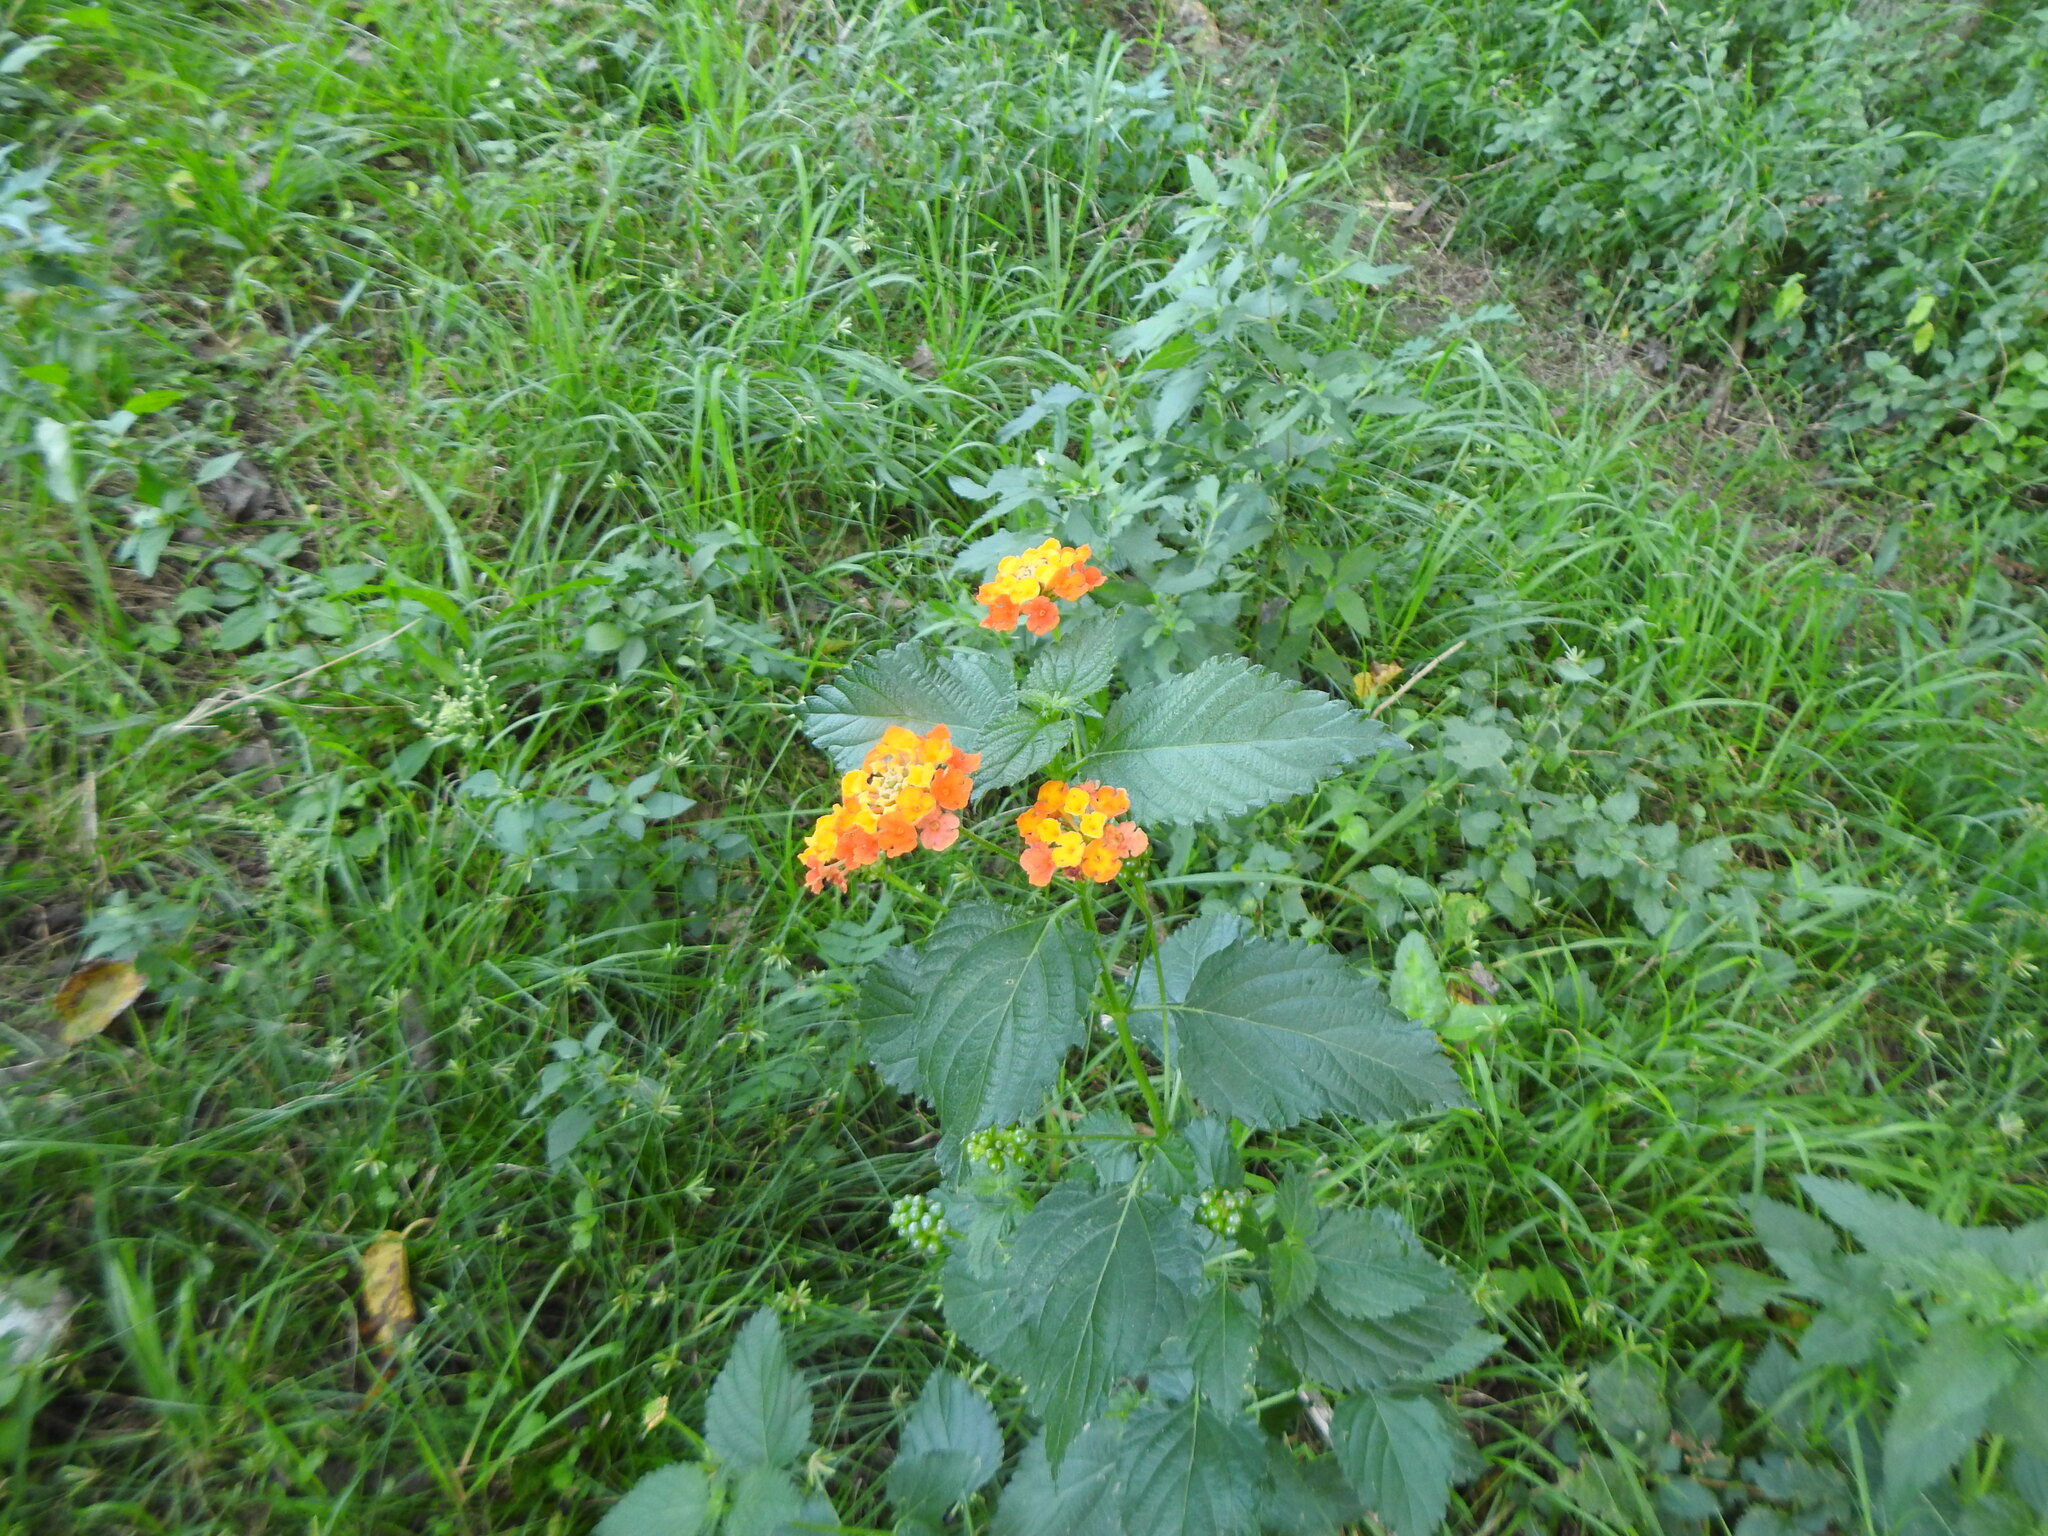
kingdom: Plantae
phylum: Tracheophyta
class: Magnoliopsida
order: Lamiales
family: Verbenaceae
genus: Lantana
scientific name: Lantana camara
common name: Lantana
